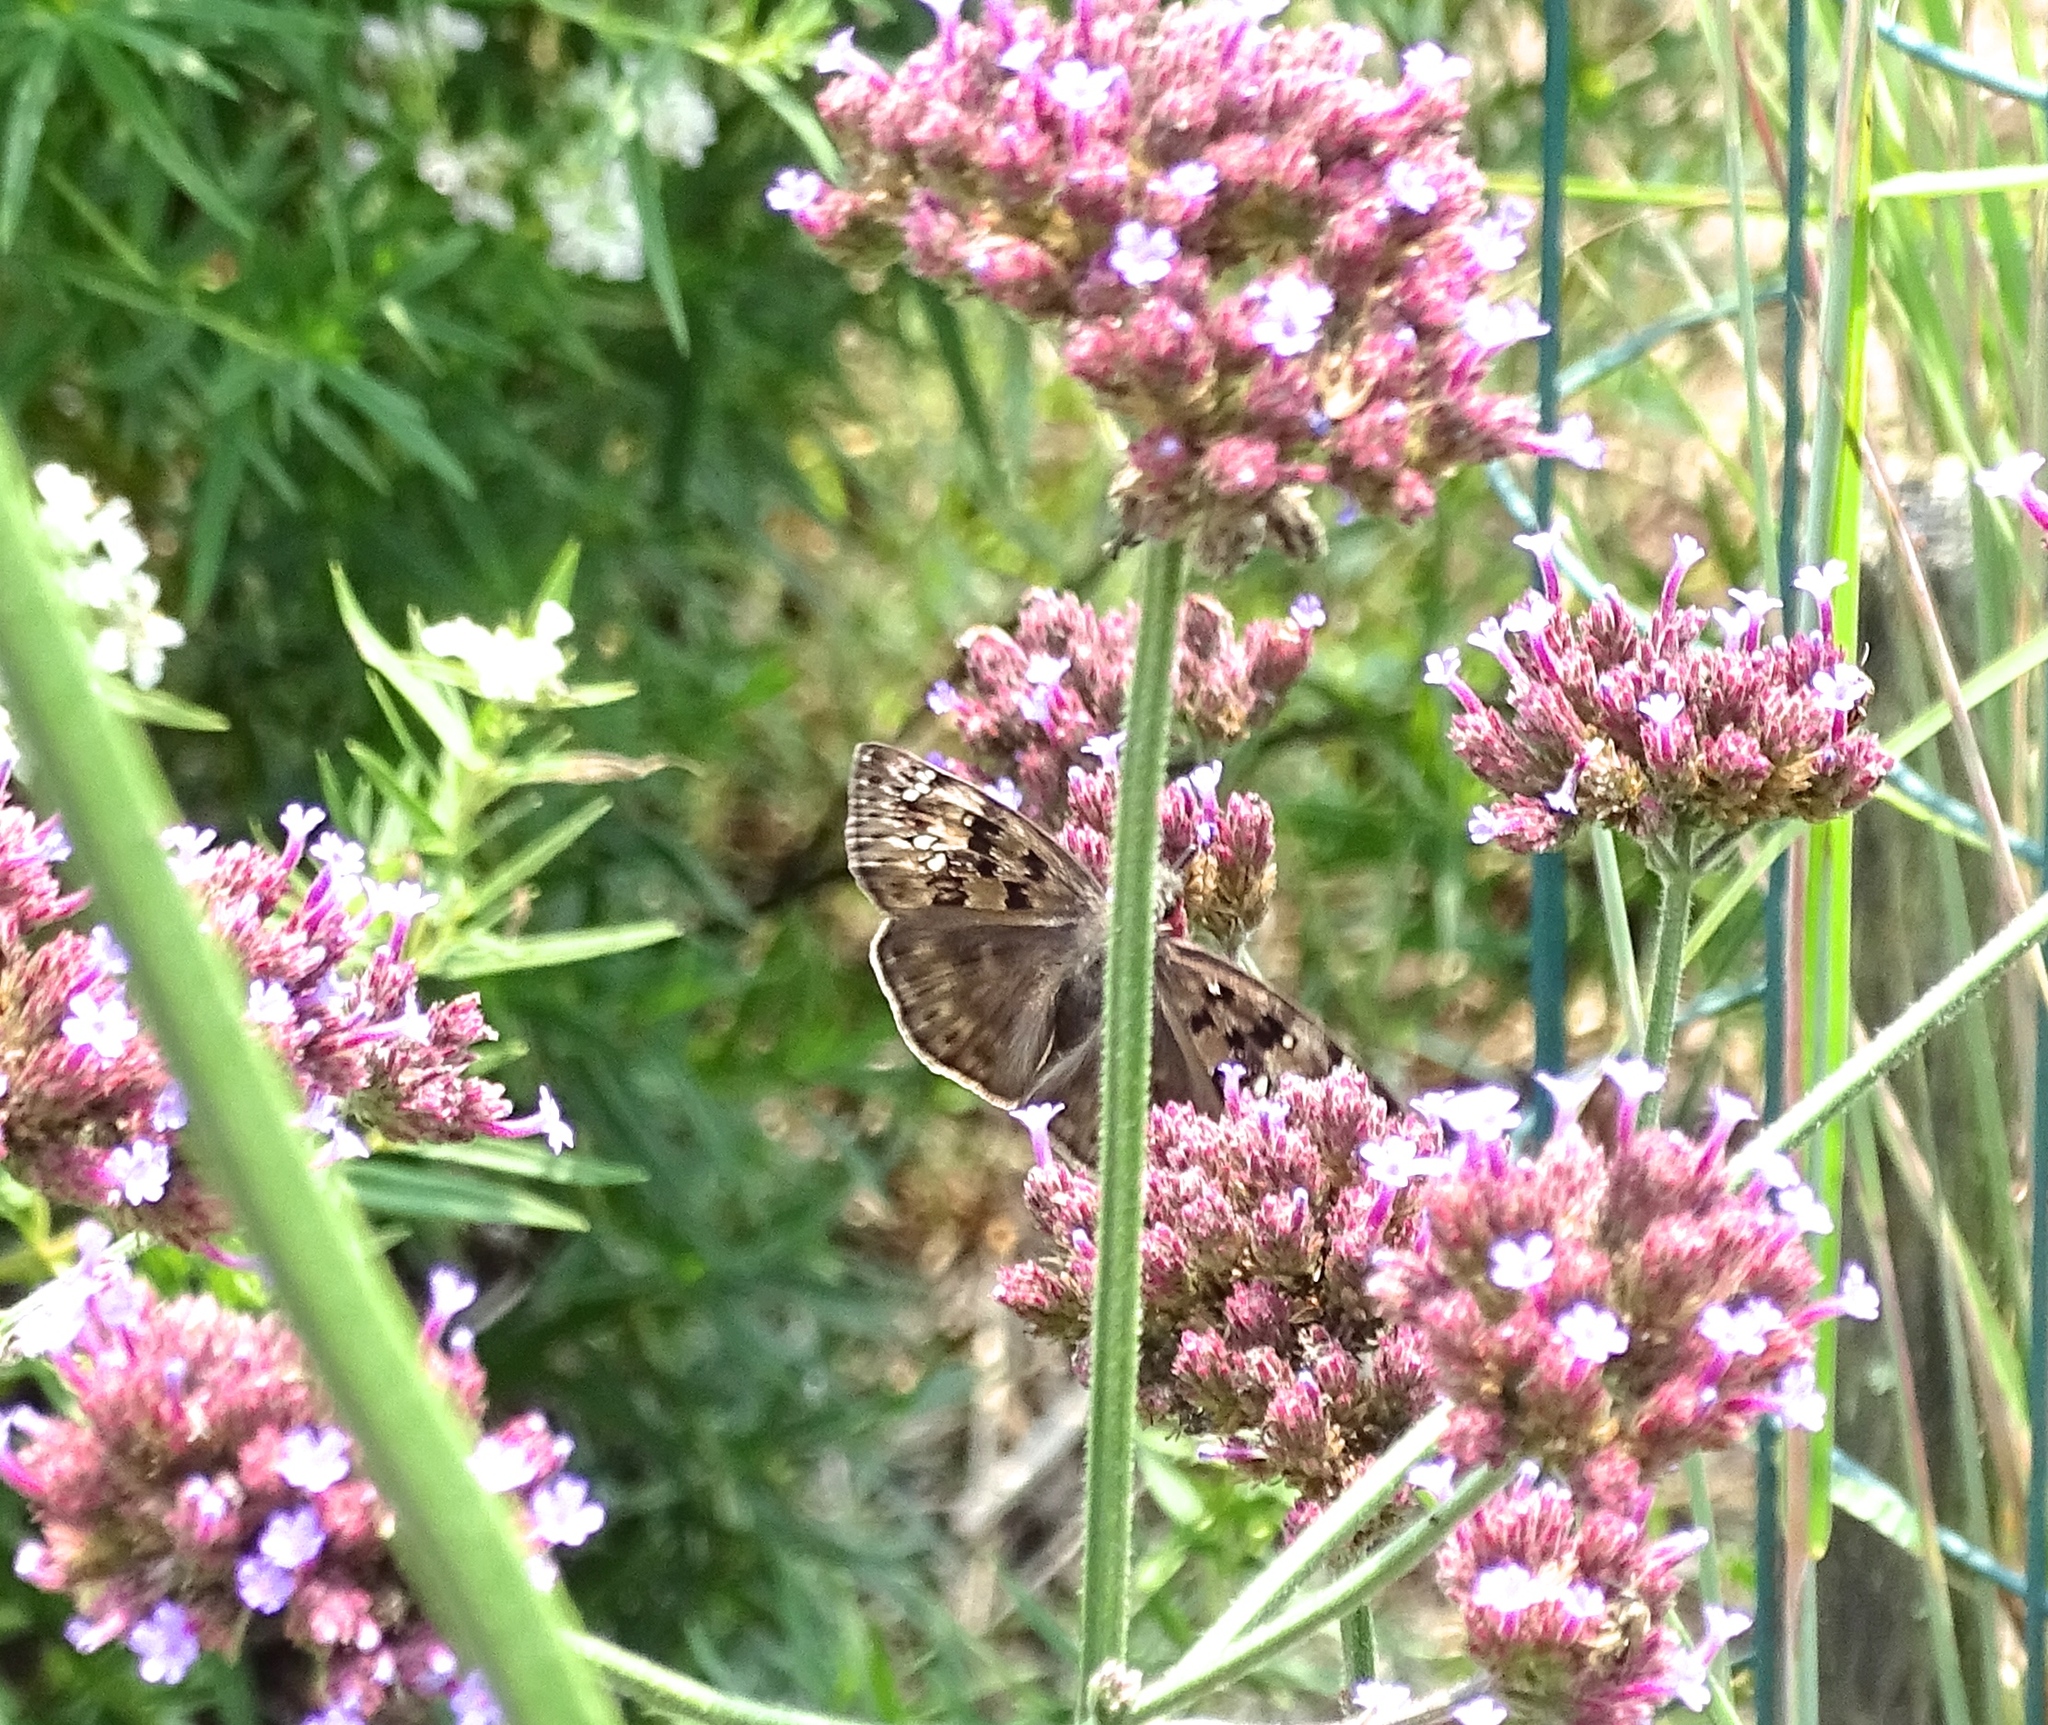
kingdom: Animalia
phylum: Arthropoda
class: Insecta
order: Lepidoptera
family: Hesperiidae
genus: Erynnis
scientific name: Erynnis horatius
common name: Horace's duskywing
